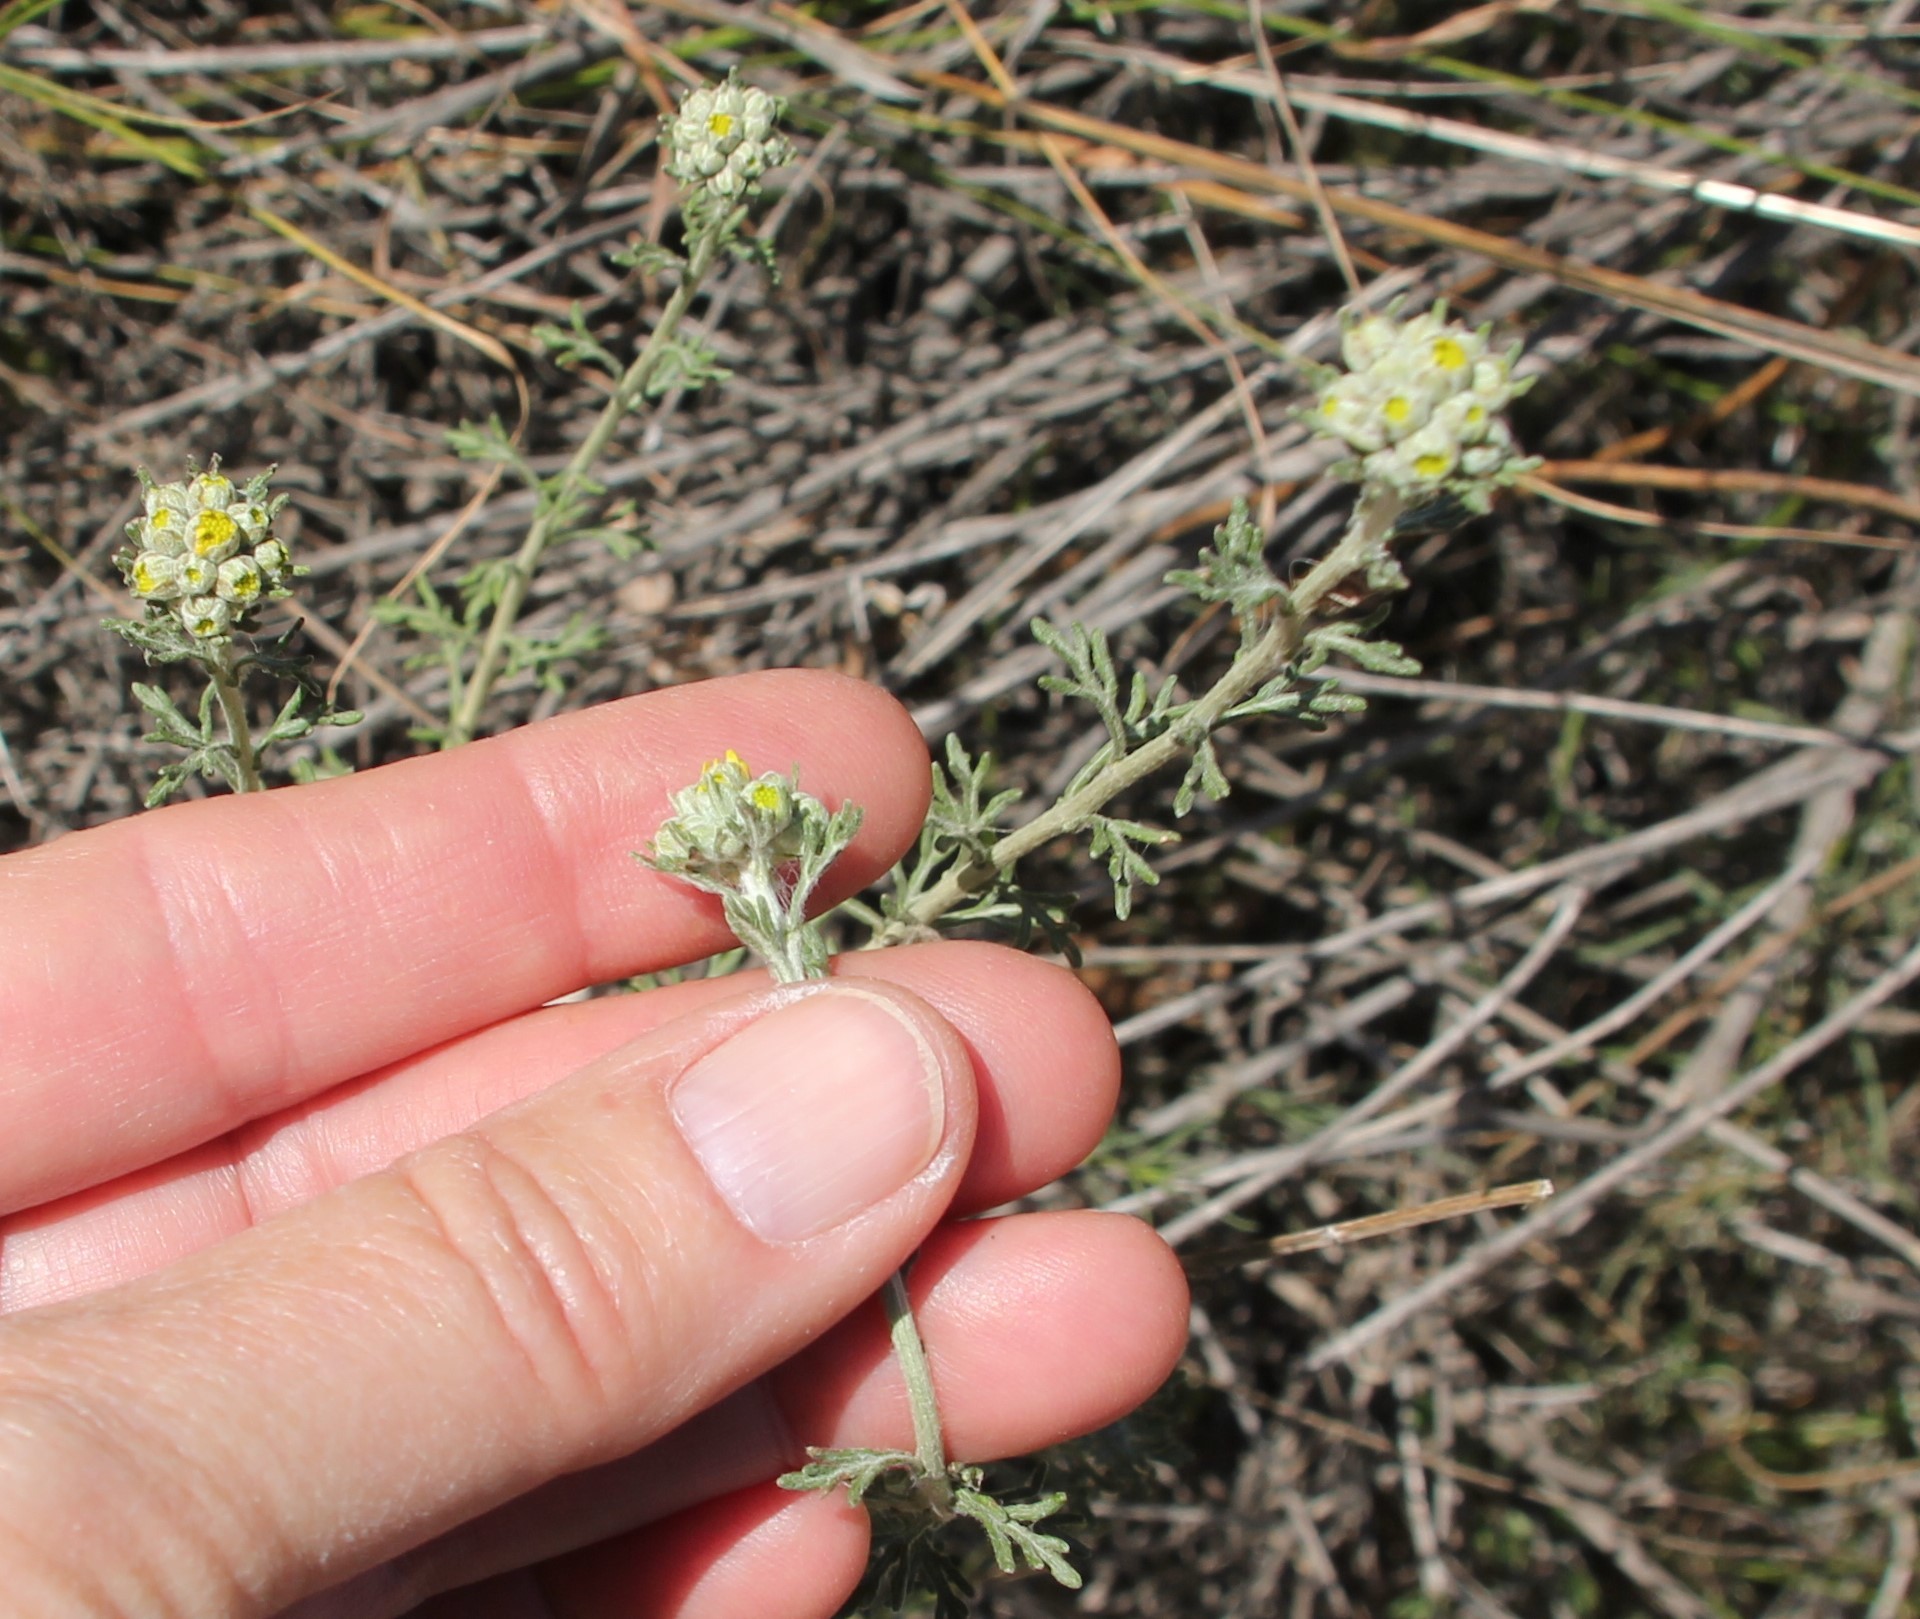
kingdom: Plantae
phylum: Tracheophyta
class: Magnoliopsida
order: Asterales
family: Asteraceae
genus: Eriophyllum
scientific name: Eriophyllum confertiflorum
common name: Golden-yarrow
